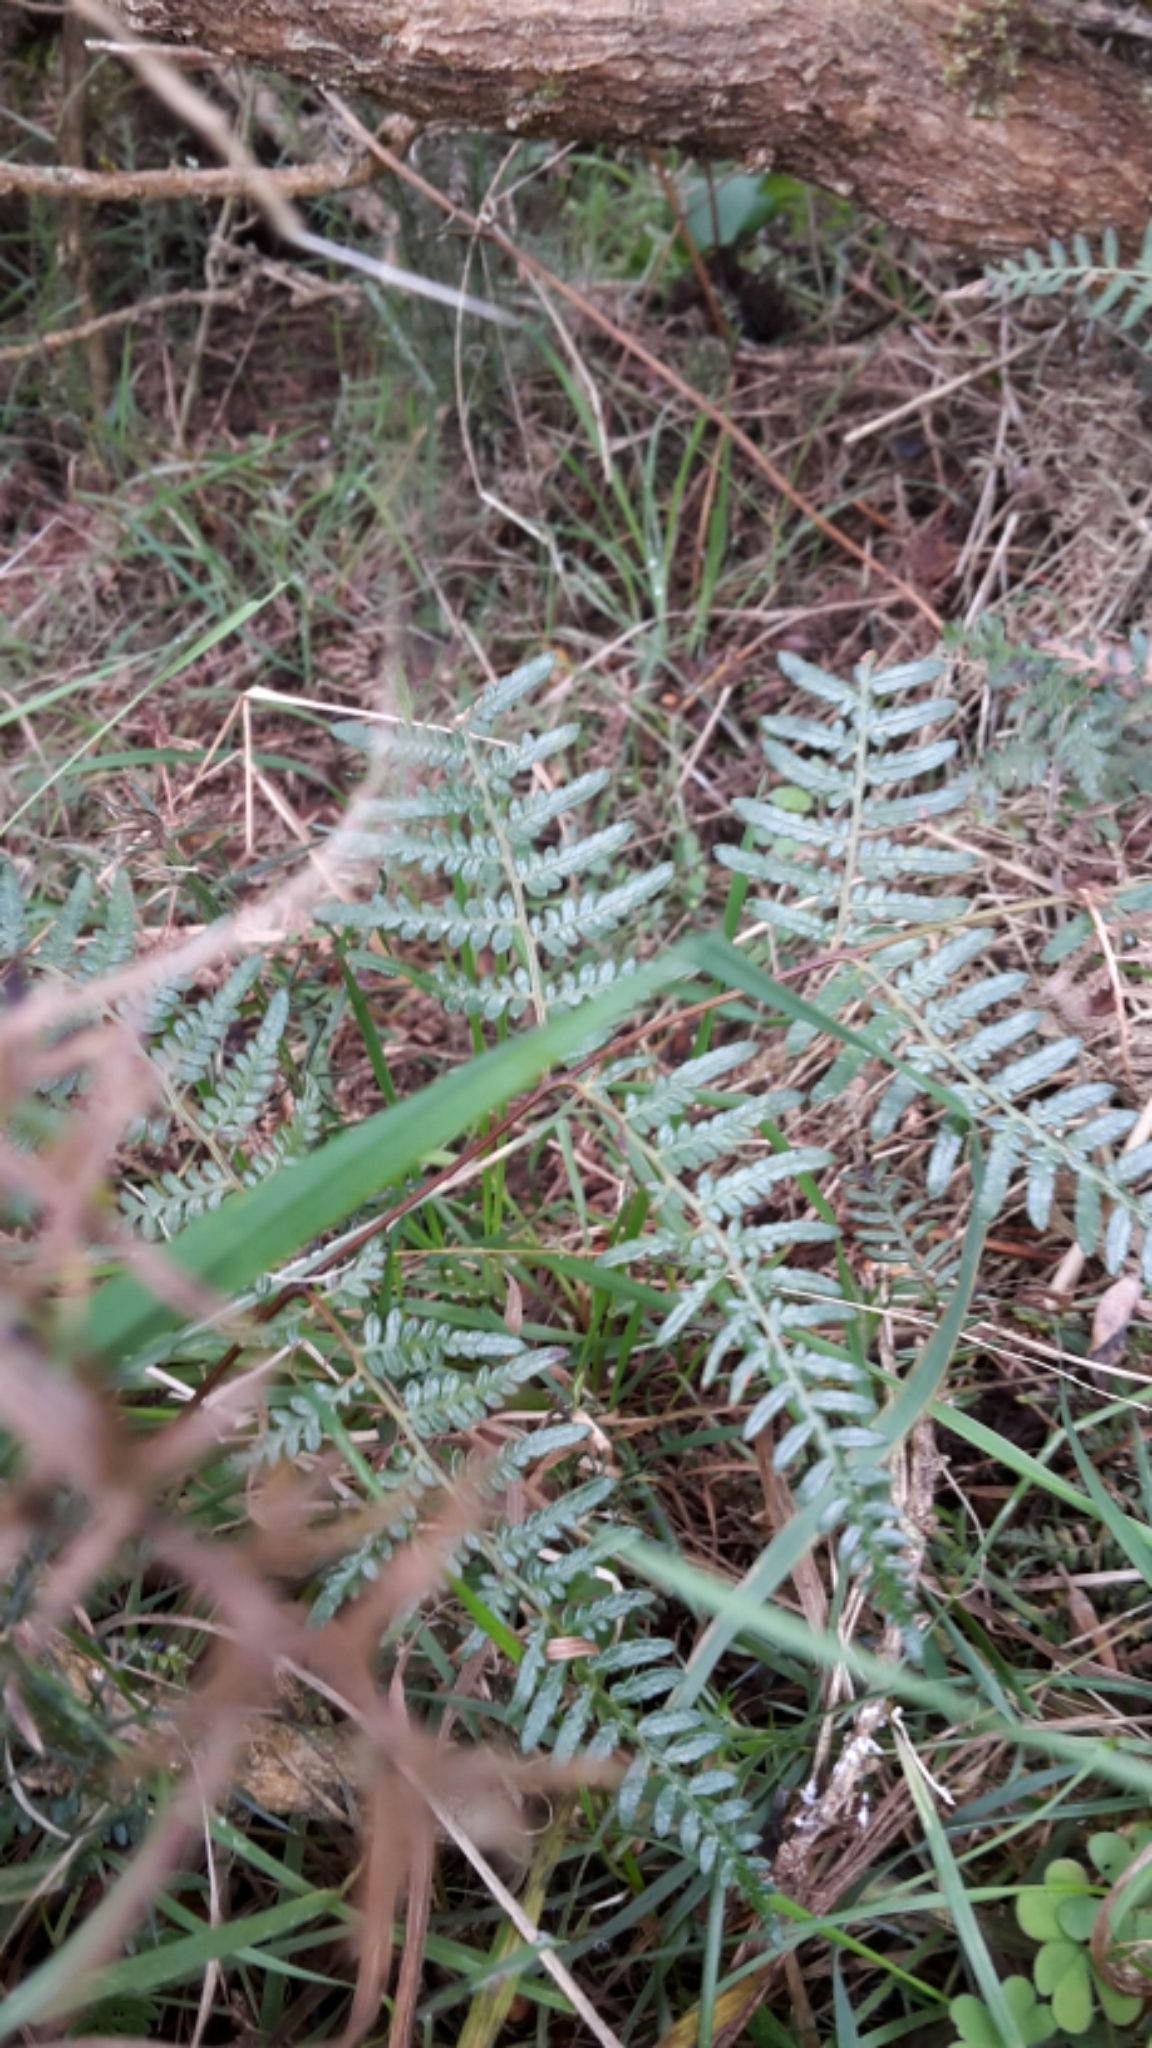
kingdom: Plantae
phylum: Tracheophyta
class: Polypodiopsida
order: Polypodiales
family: Dennstaedtiaceae
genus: Pteridium
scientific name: Pteridium esculentum
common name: Bracken fern
